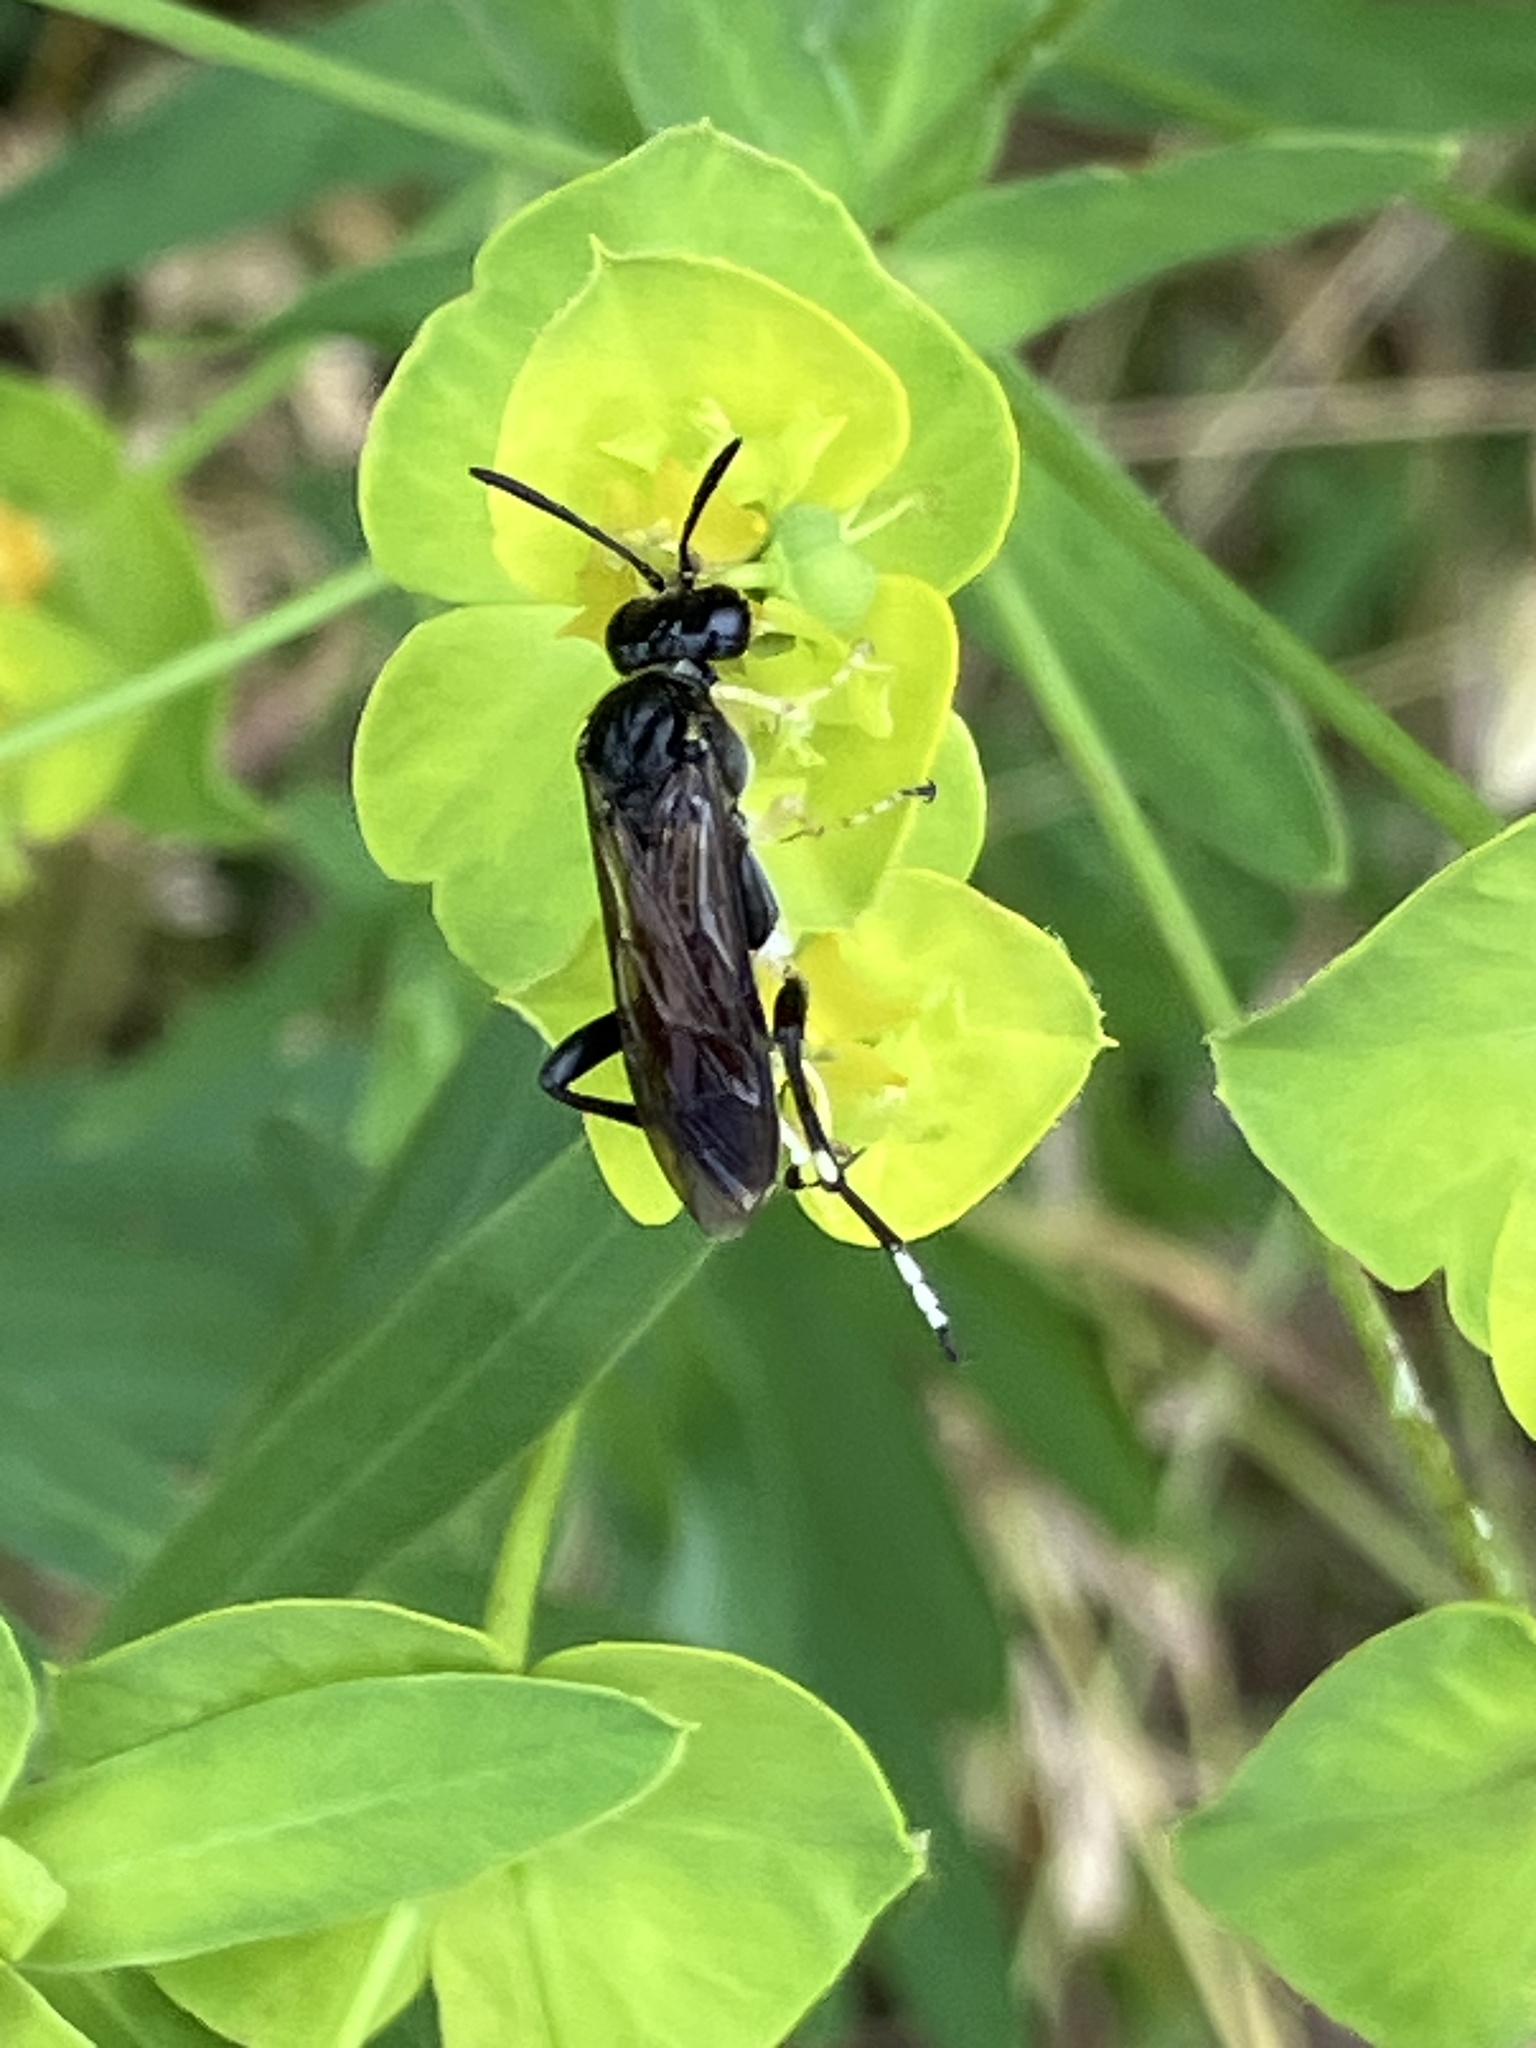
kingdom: Animalia
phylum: Arthropoda
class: Insecta
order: Hymenoptera
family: Tenthredinidae
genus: Macrophya
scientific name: Macrophya montana
